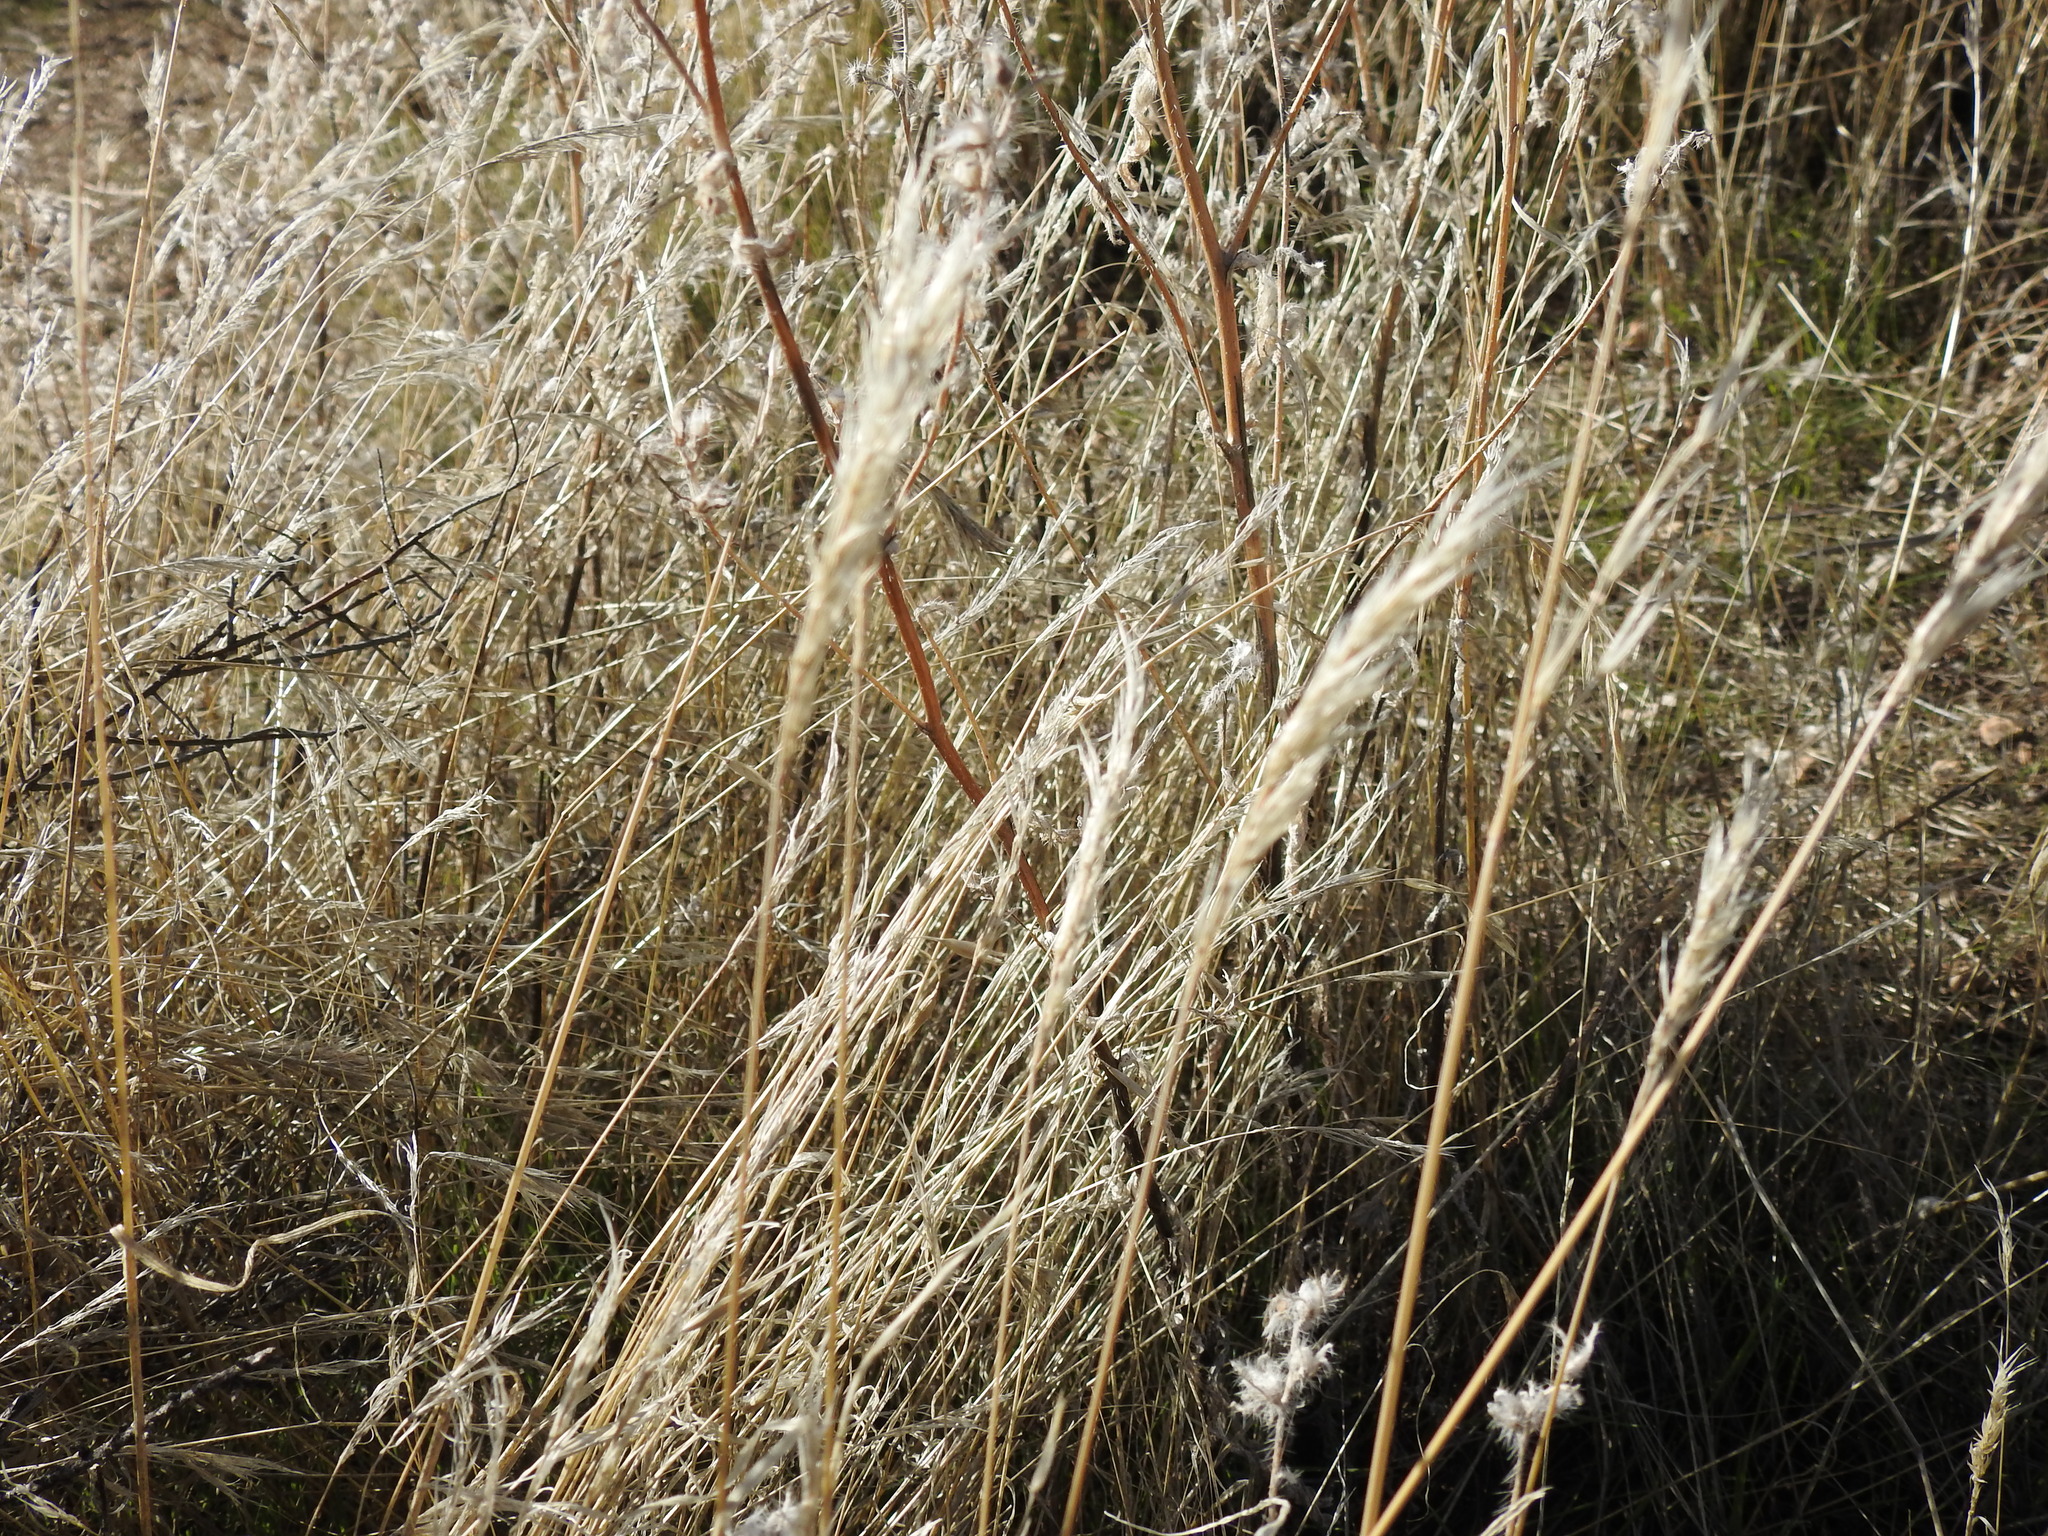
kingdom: Plantae
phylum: Tracheophyta
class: Liliopsida
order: Poales
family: Poaceae
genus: Bromus
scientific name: Bromus rubens
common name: Red brome
